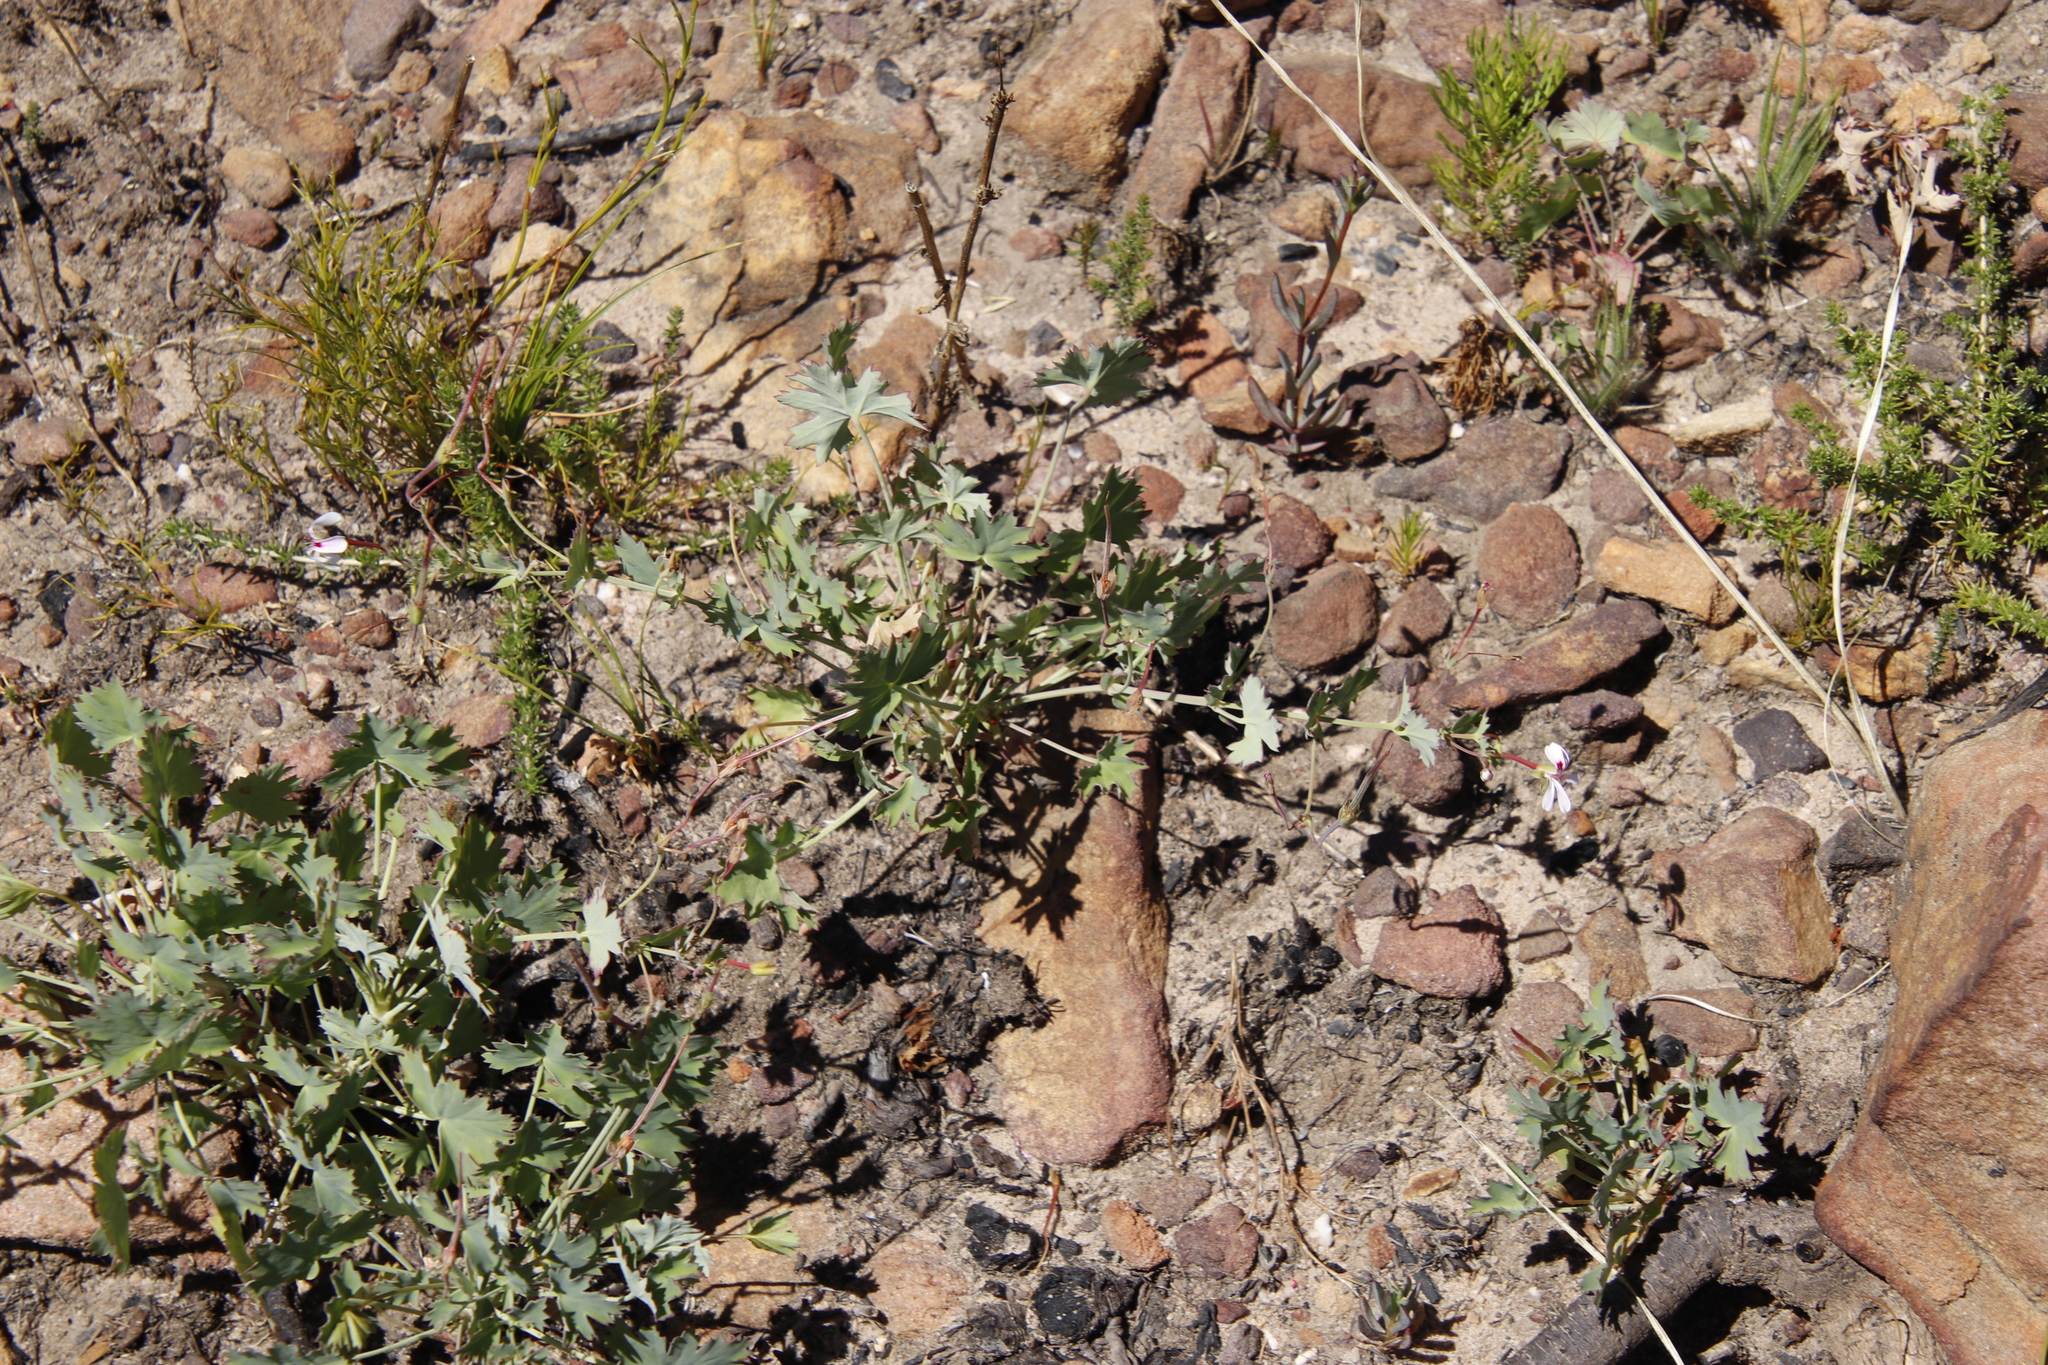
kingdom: Plantae
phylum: Tracheophyta
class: Magnoliopsida
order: Geraniales
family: Geraniaceae
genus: Pelargonium
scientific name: Pelargonium patulum
